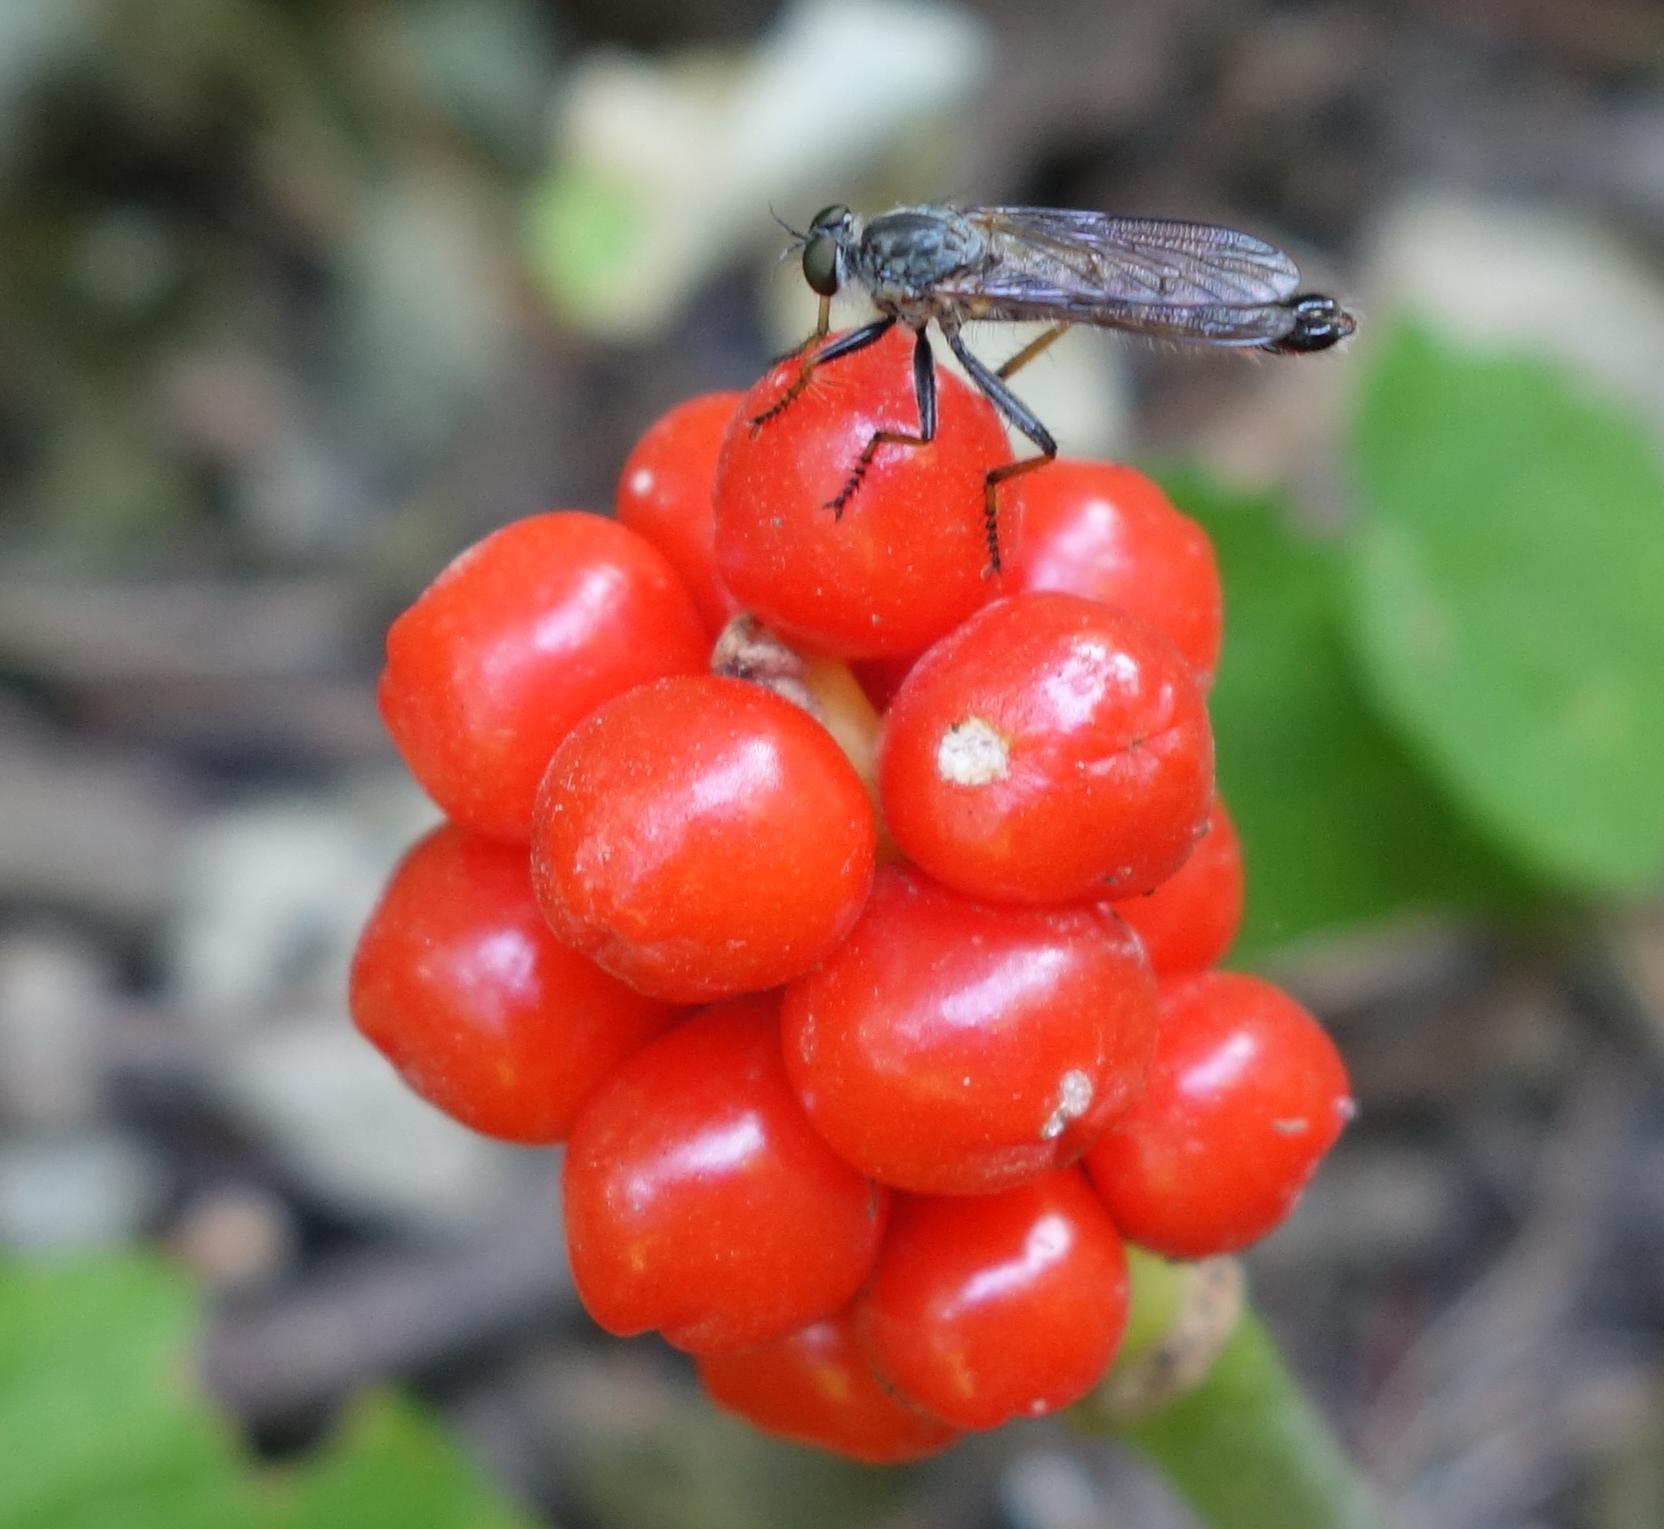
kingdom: Animalia
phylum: Arthropoda
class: Insecta
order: Diptera
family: Asilidae
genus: Paritamus
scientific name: Paritamus geniculatus
